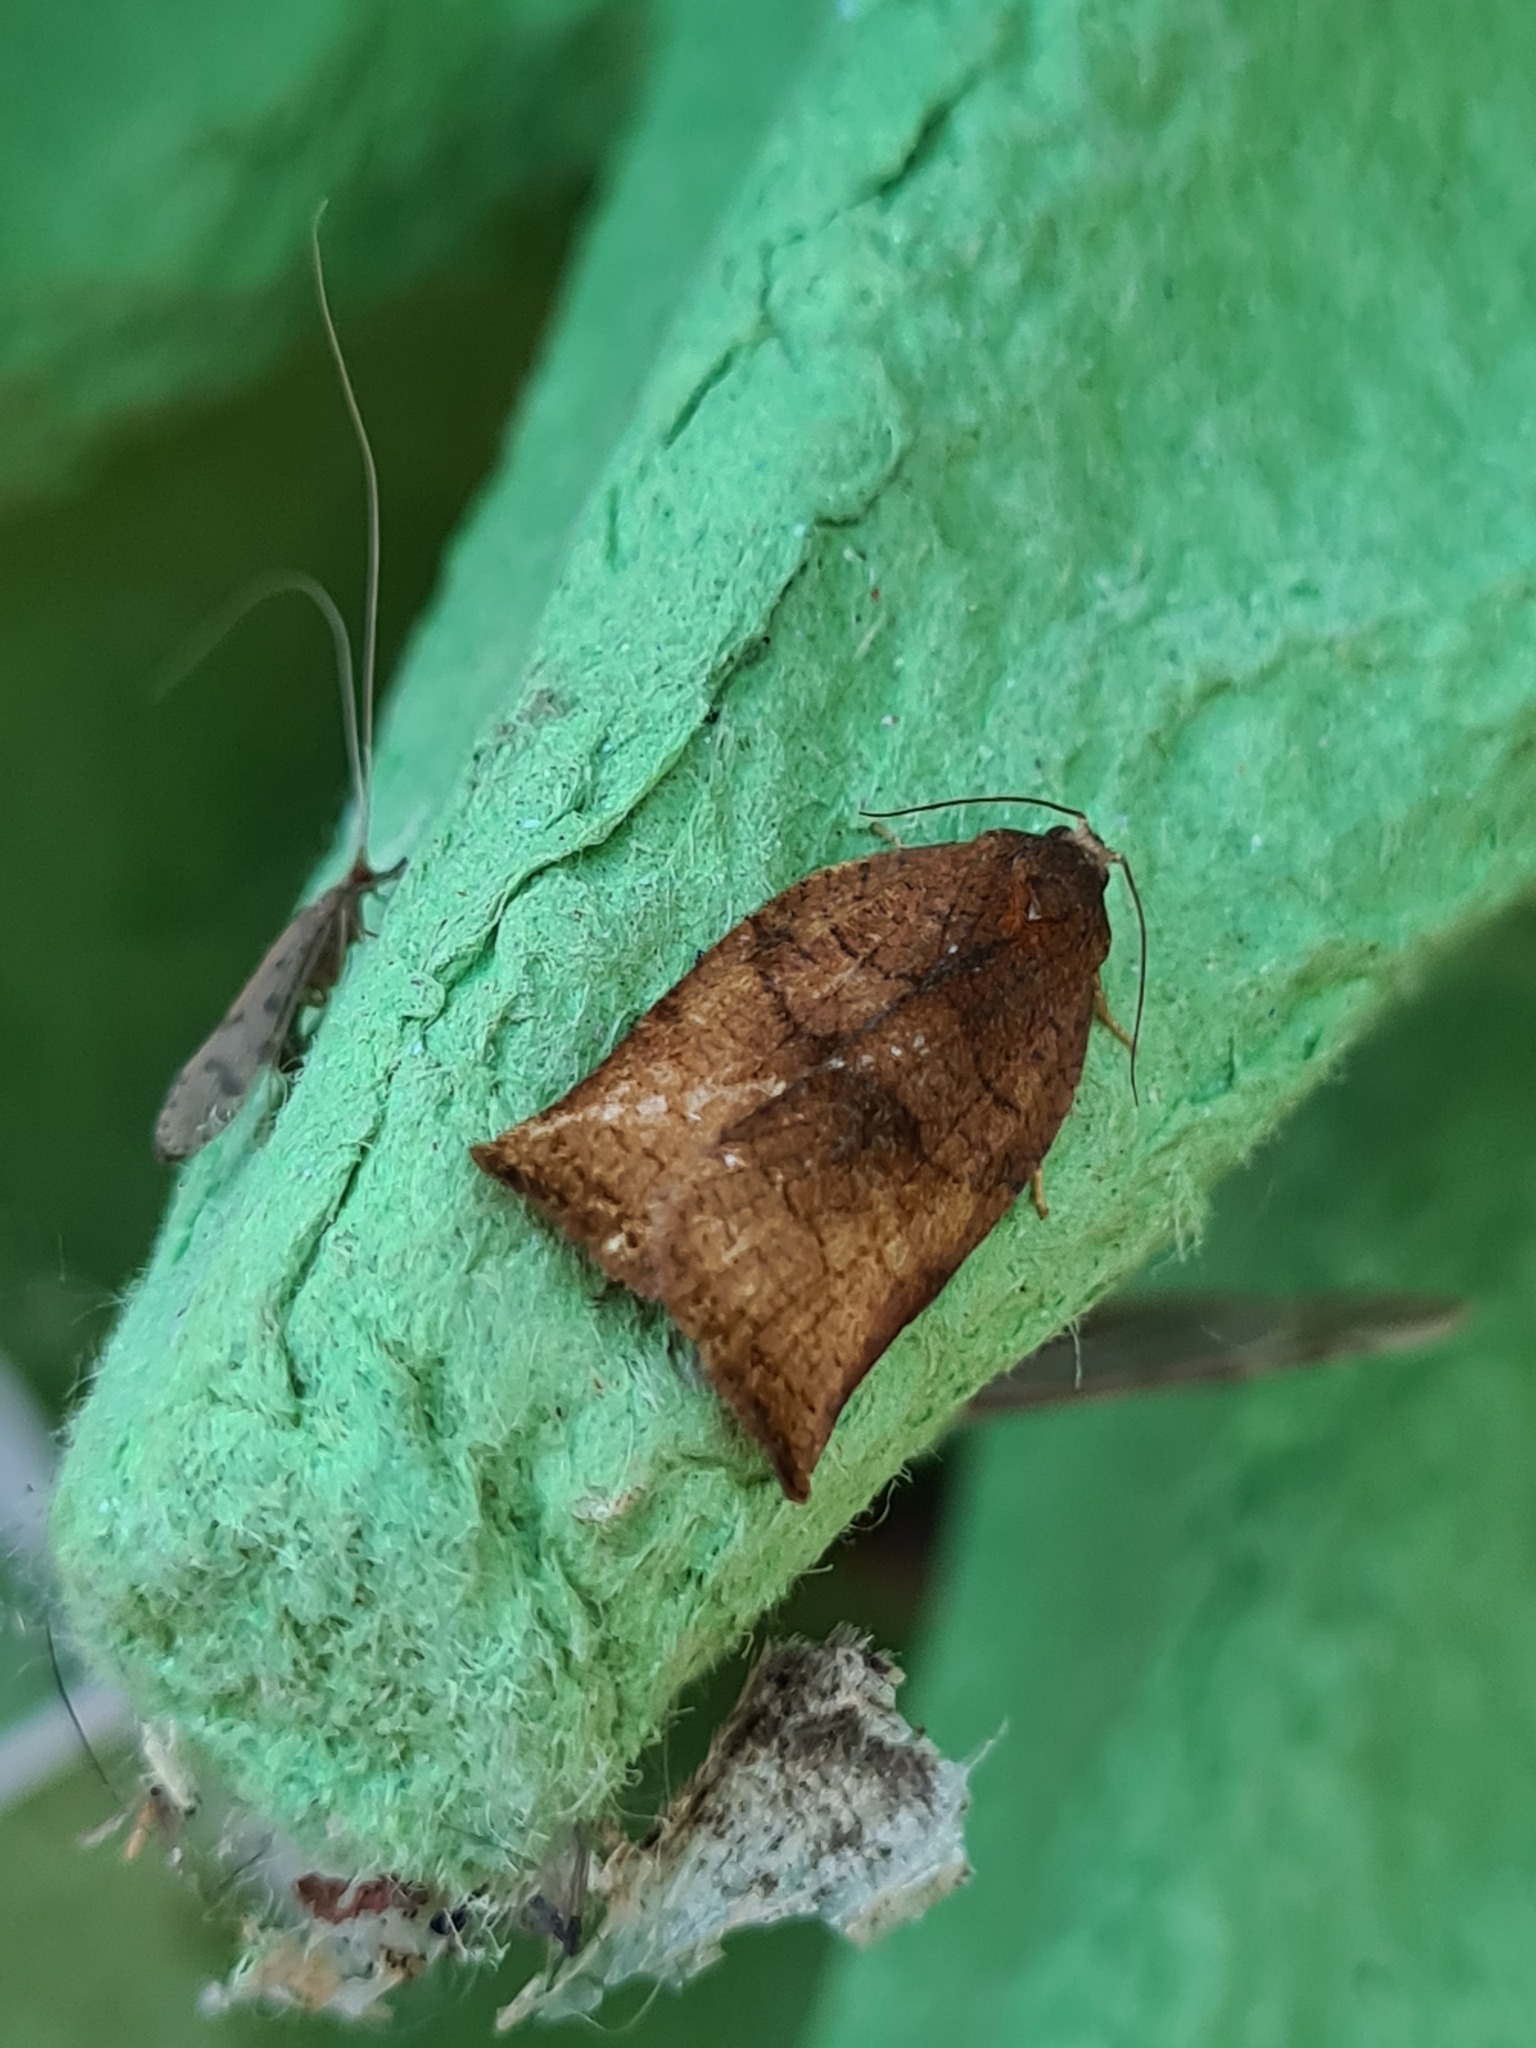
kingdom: Animalia
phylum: Arthropoda
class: Insecta
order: Lepidoptera
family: Tortricidae
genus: Archips
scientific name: Archips podana
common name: Large fruit-tree tortrix
